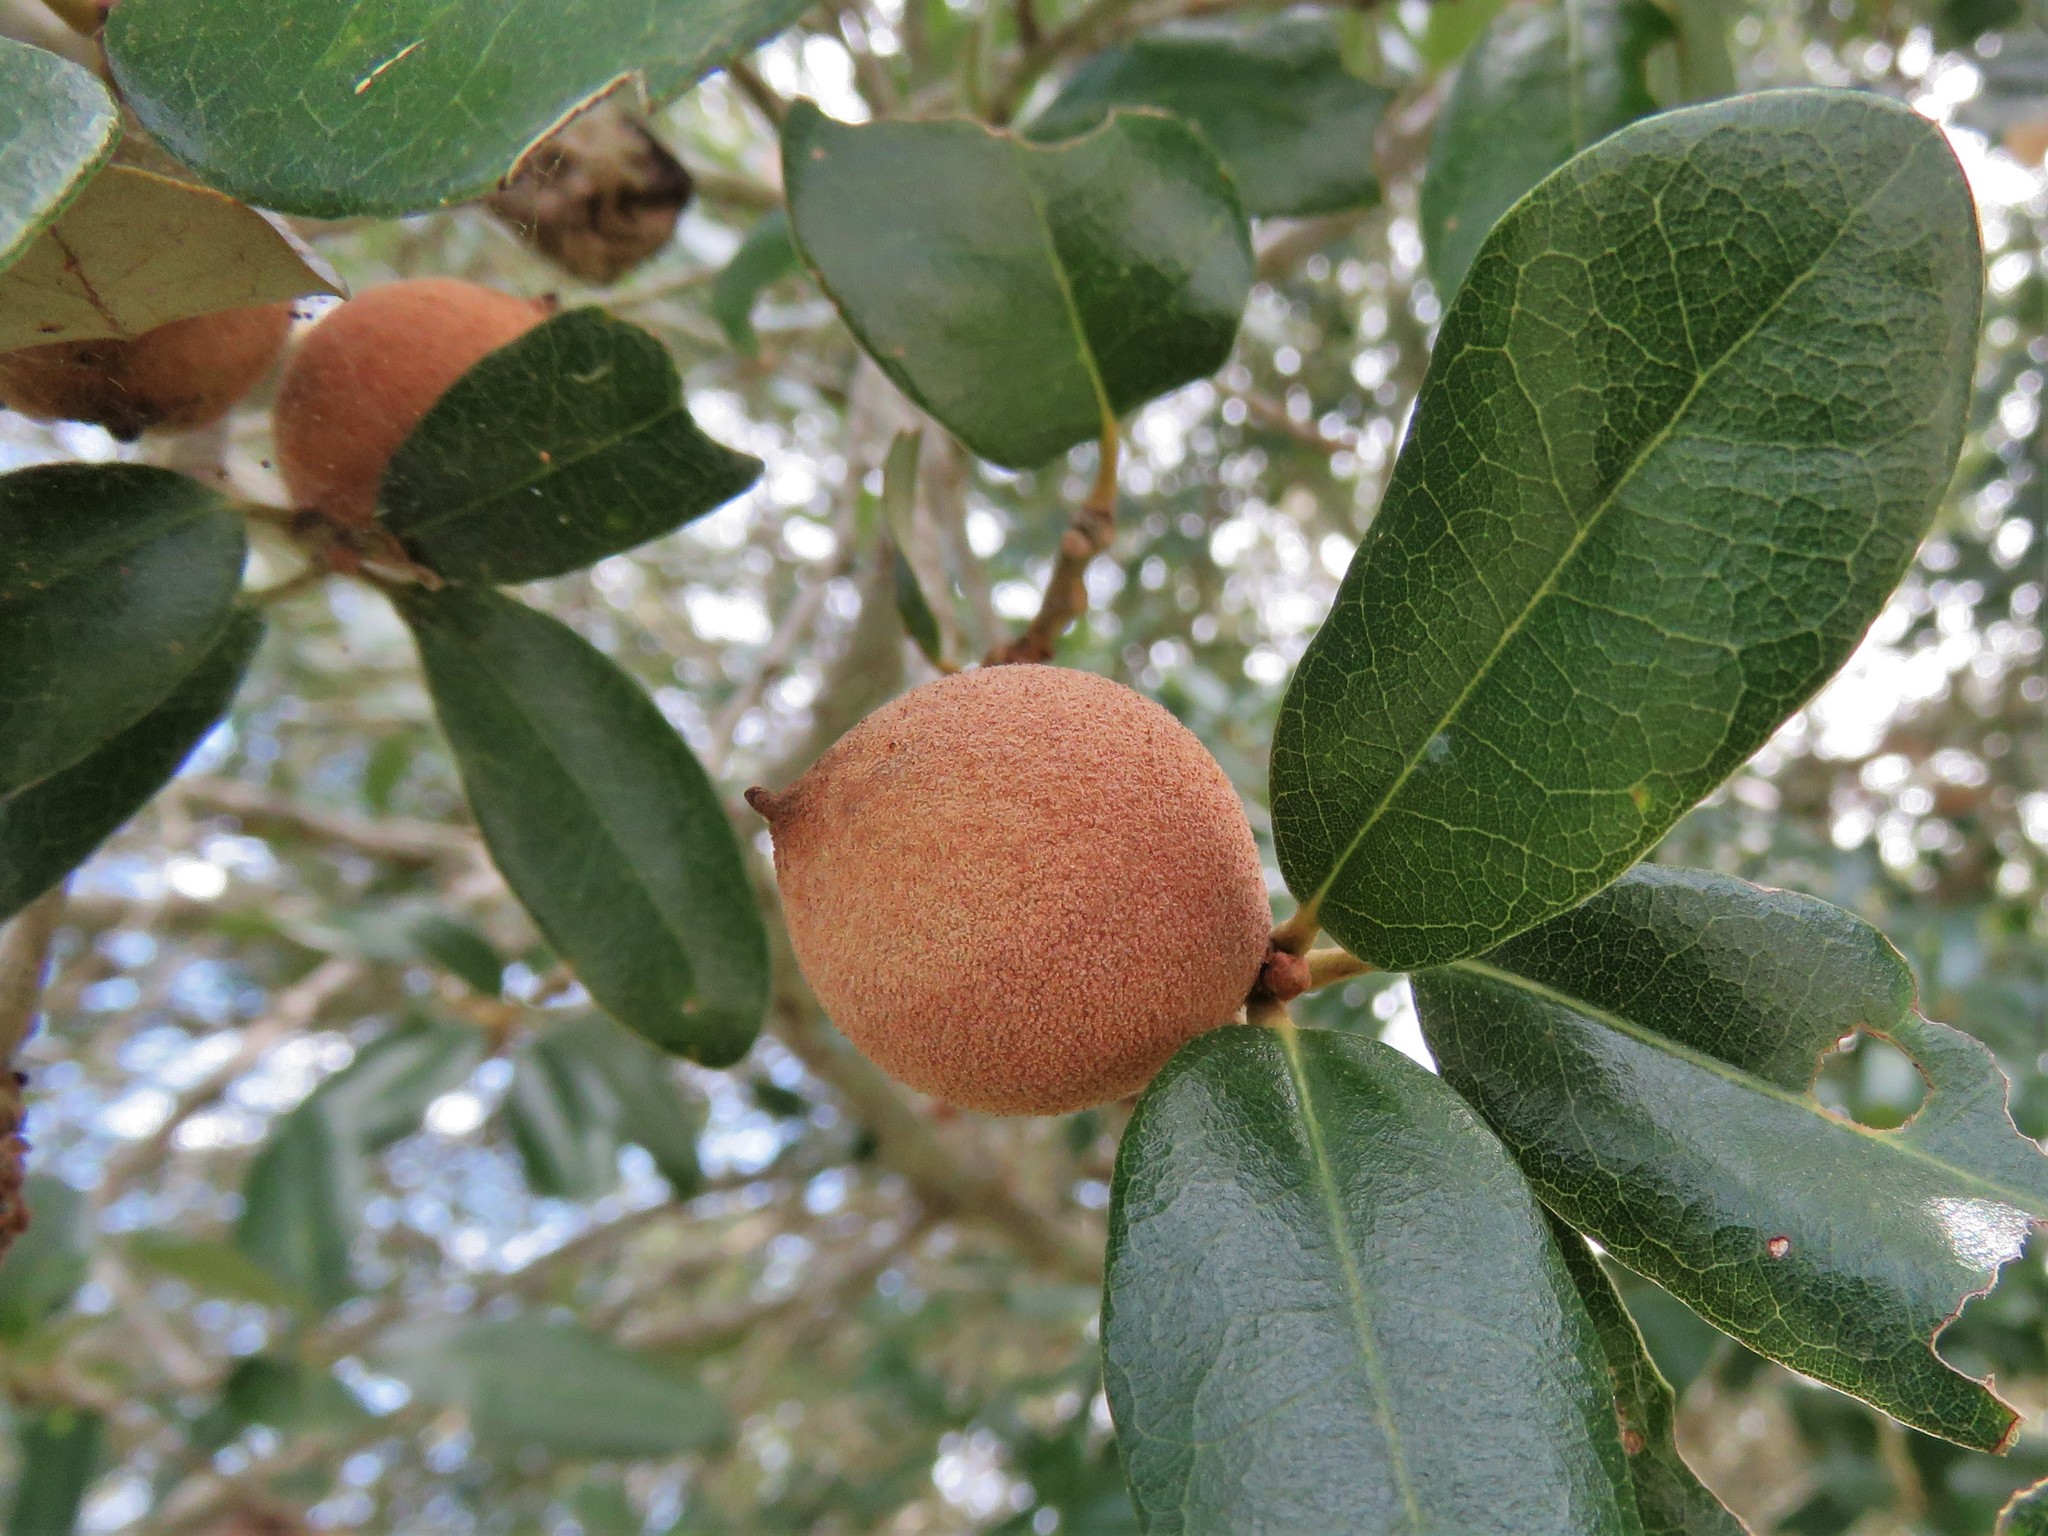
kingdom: Animalia
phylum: Arthropoda
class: Insecta
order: Hymenoptera
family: Cynipidae
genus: Disholcaspis
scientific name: Disholcaspis
